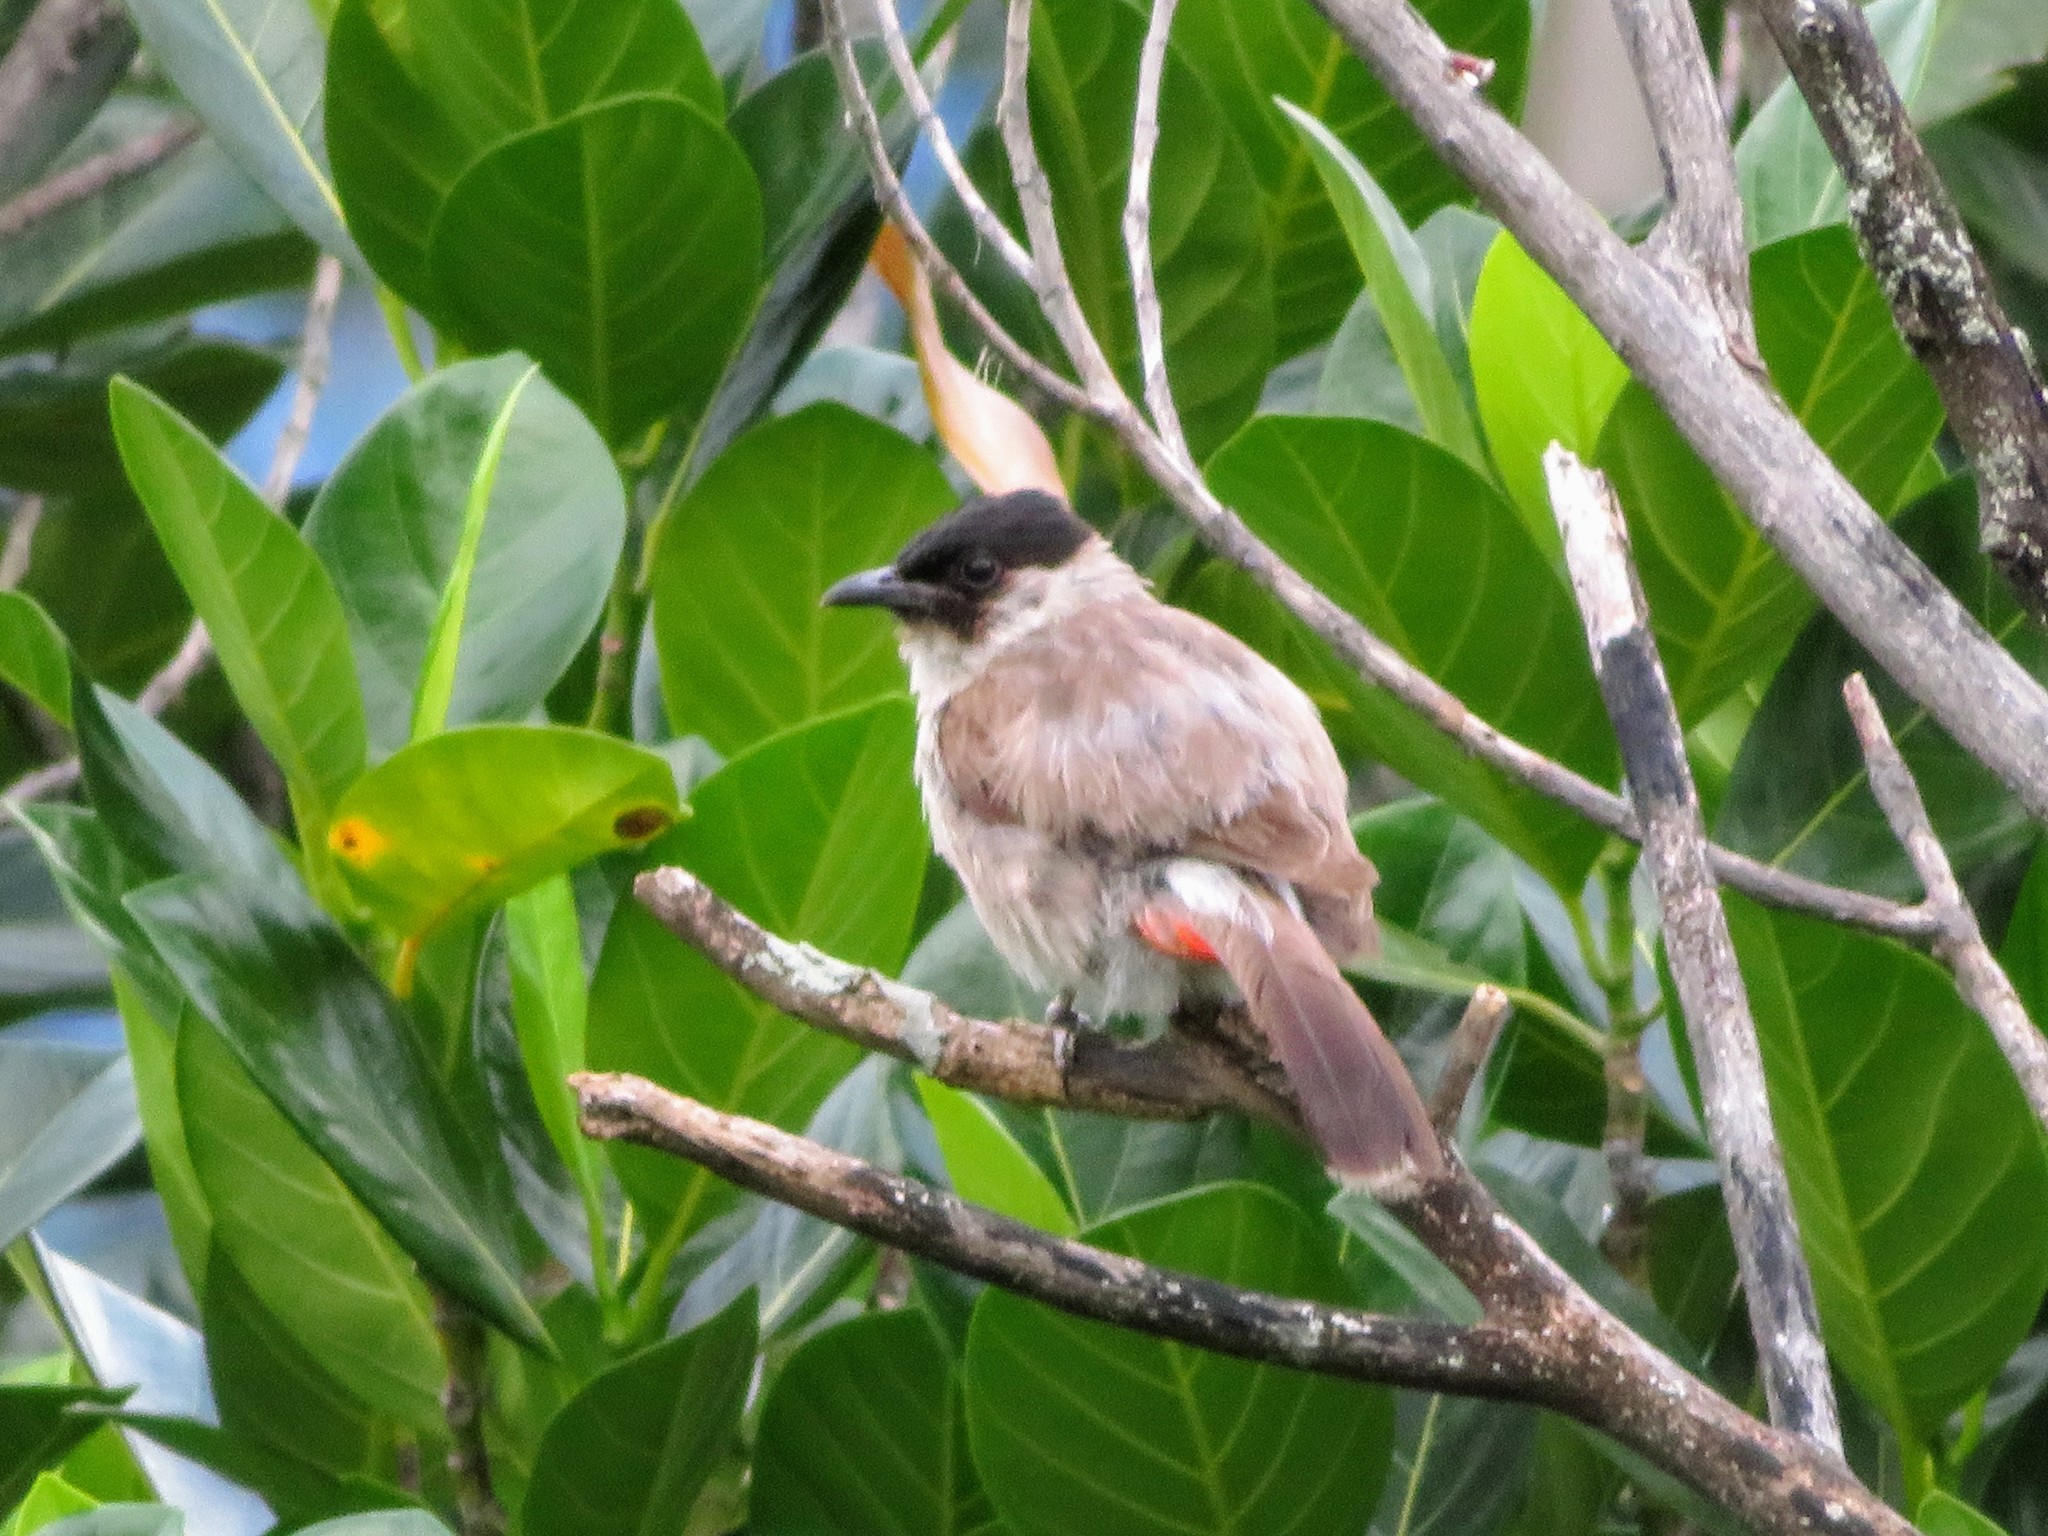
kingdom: Animalia
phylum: Chordata
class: Aves
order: Passeriformes
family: Pycnonotidae
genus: Pycnonotus
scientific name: Pycnonotus aurigaster
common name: Sooty-headed bulbul
